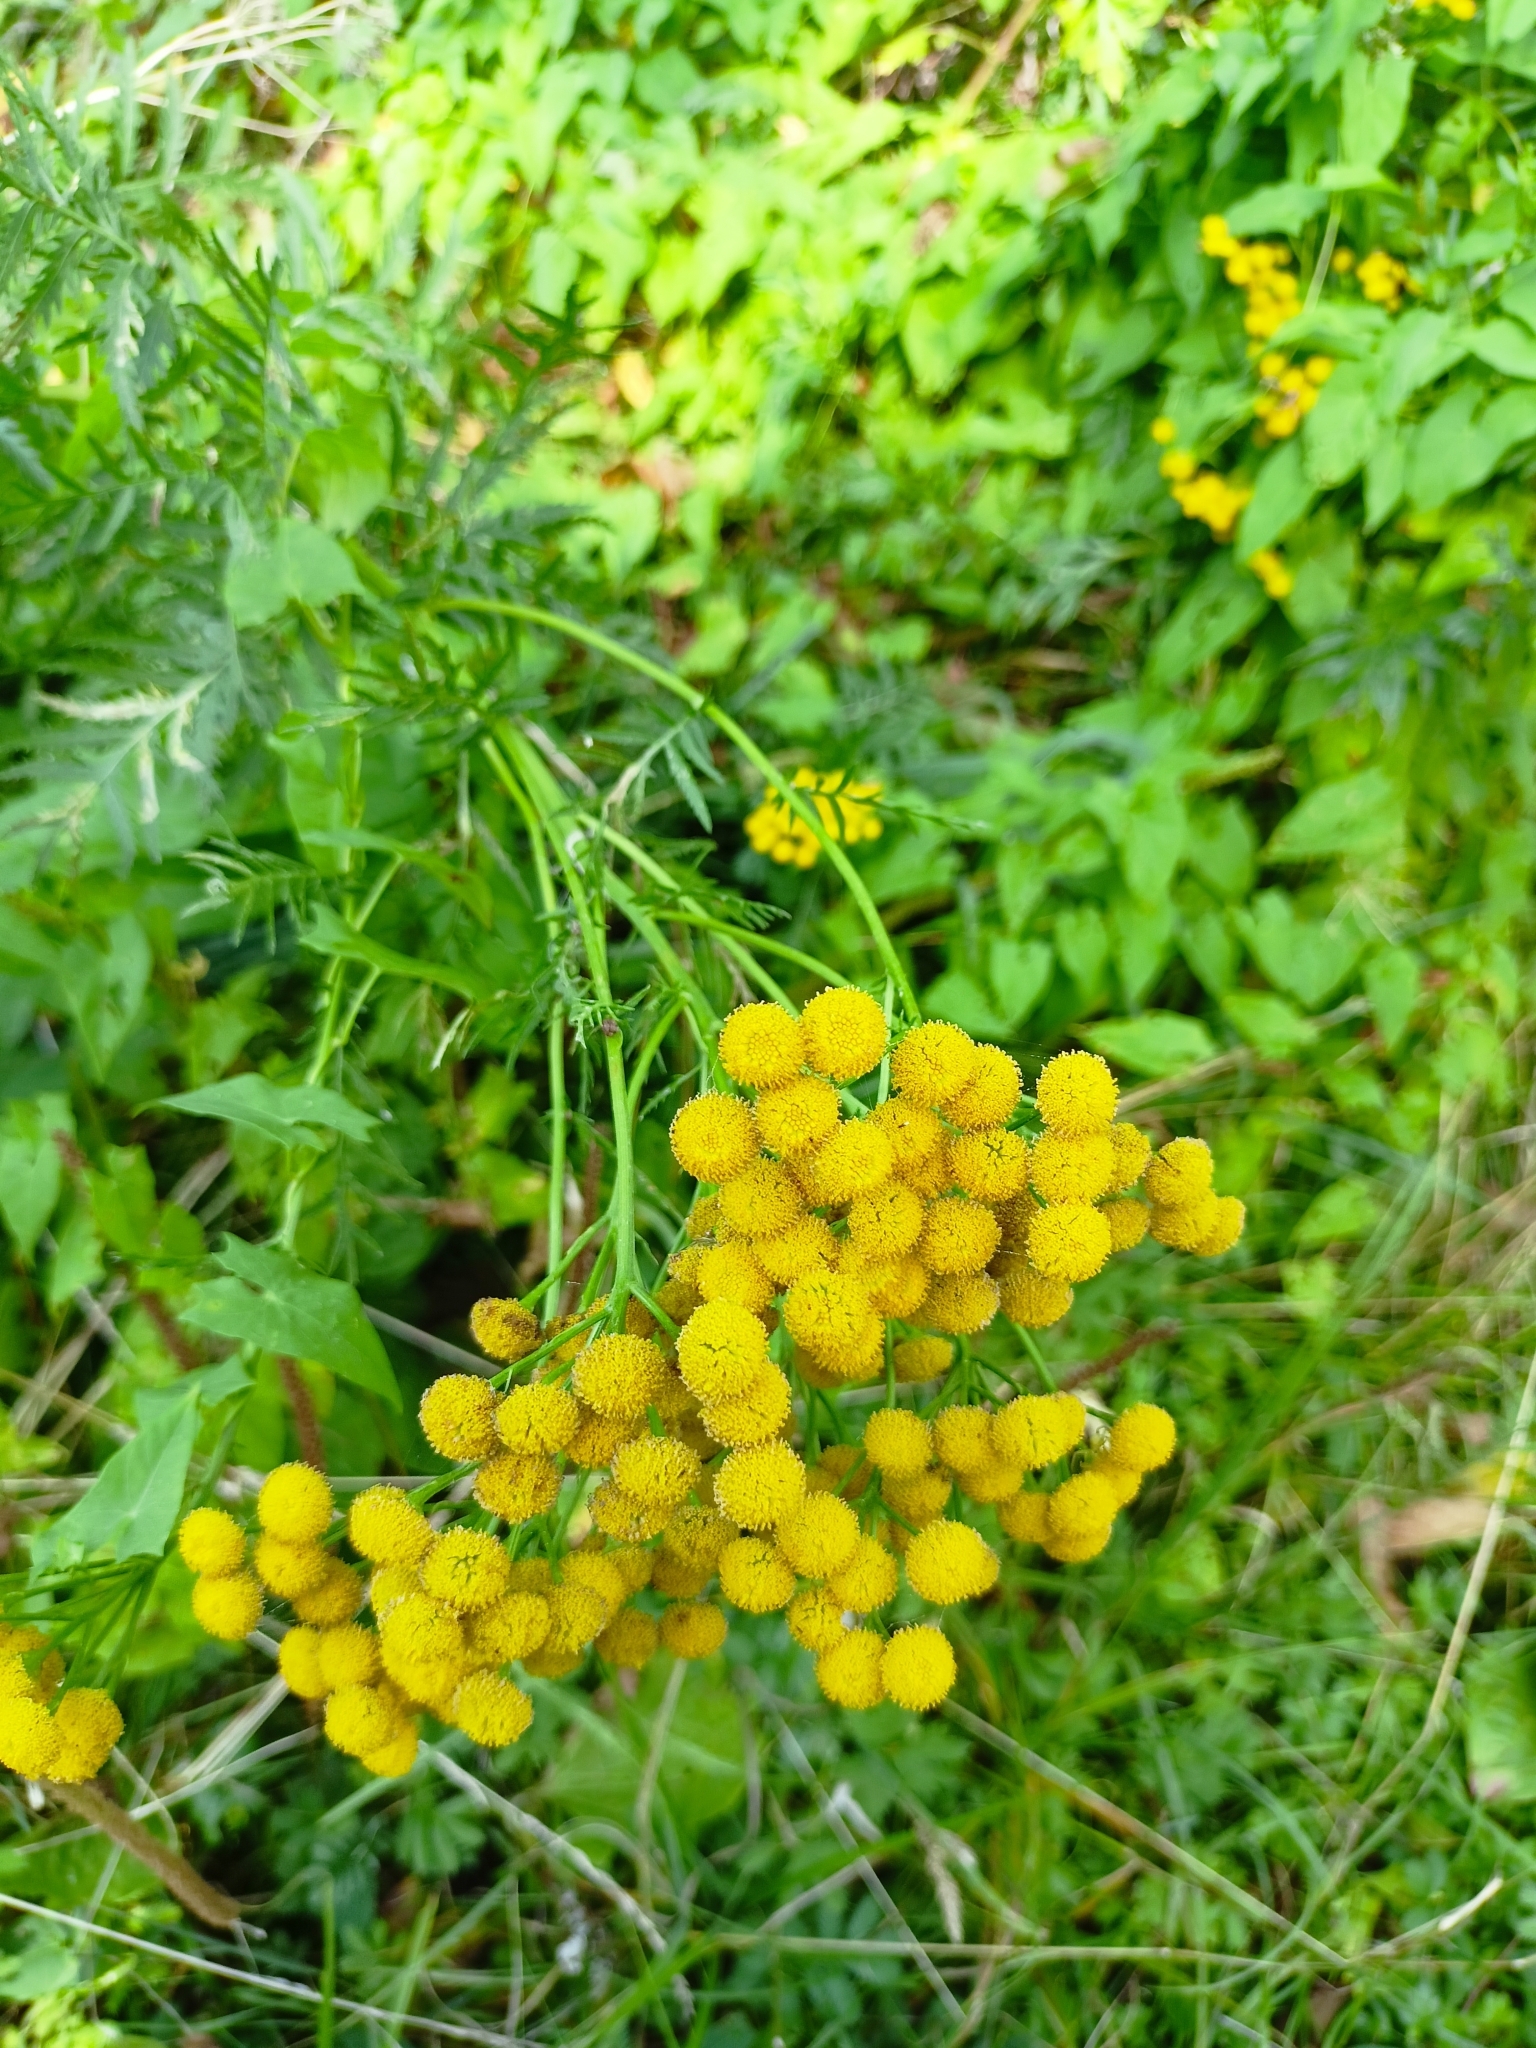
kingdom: Plantae
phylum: Tracheophyta
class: Magnoliopsida
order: Asterales
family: Asteraceae
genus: Tanacetum
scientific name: Tanacetum vulgare
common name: Common tansy
